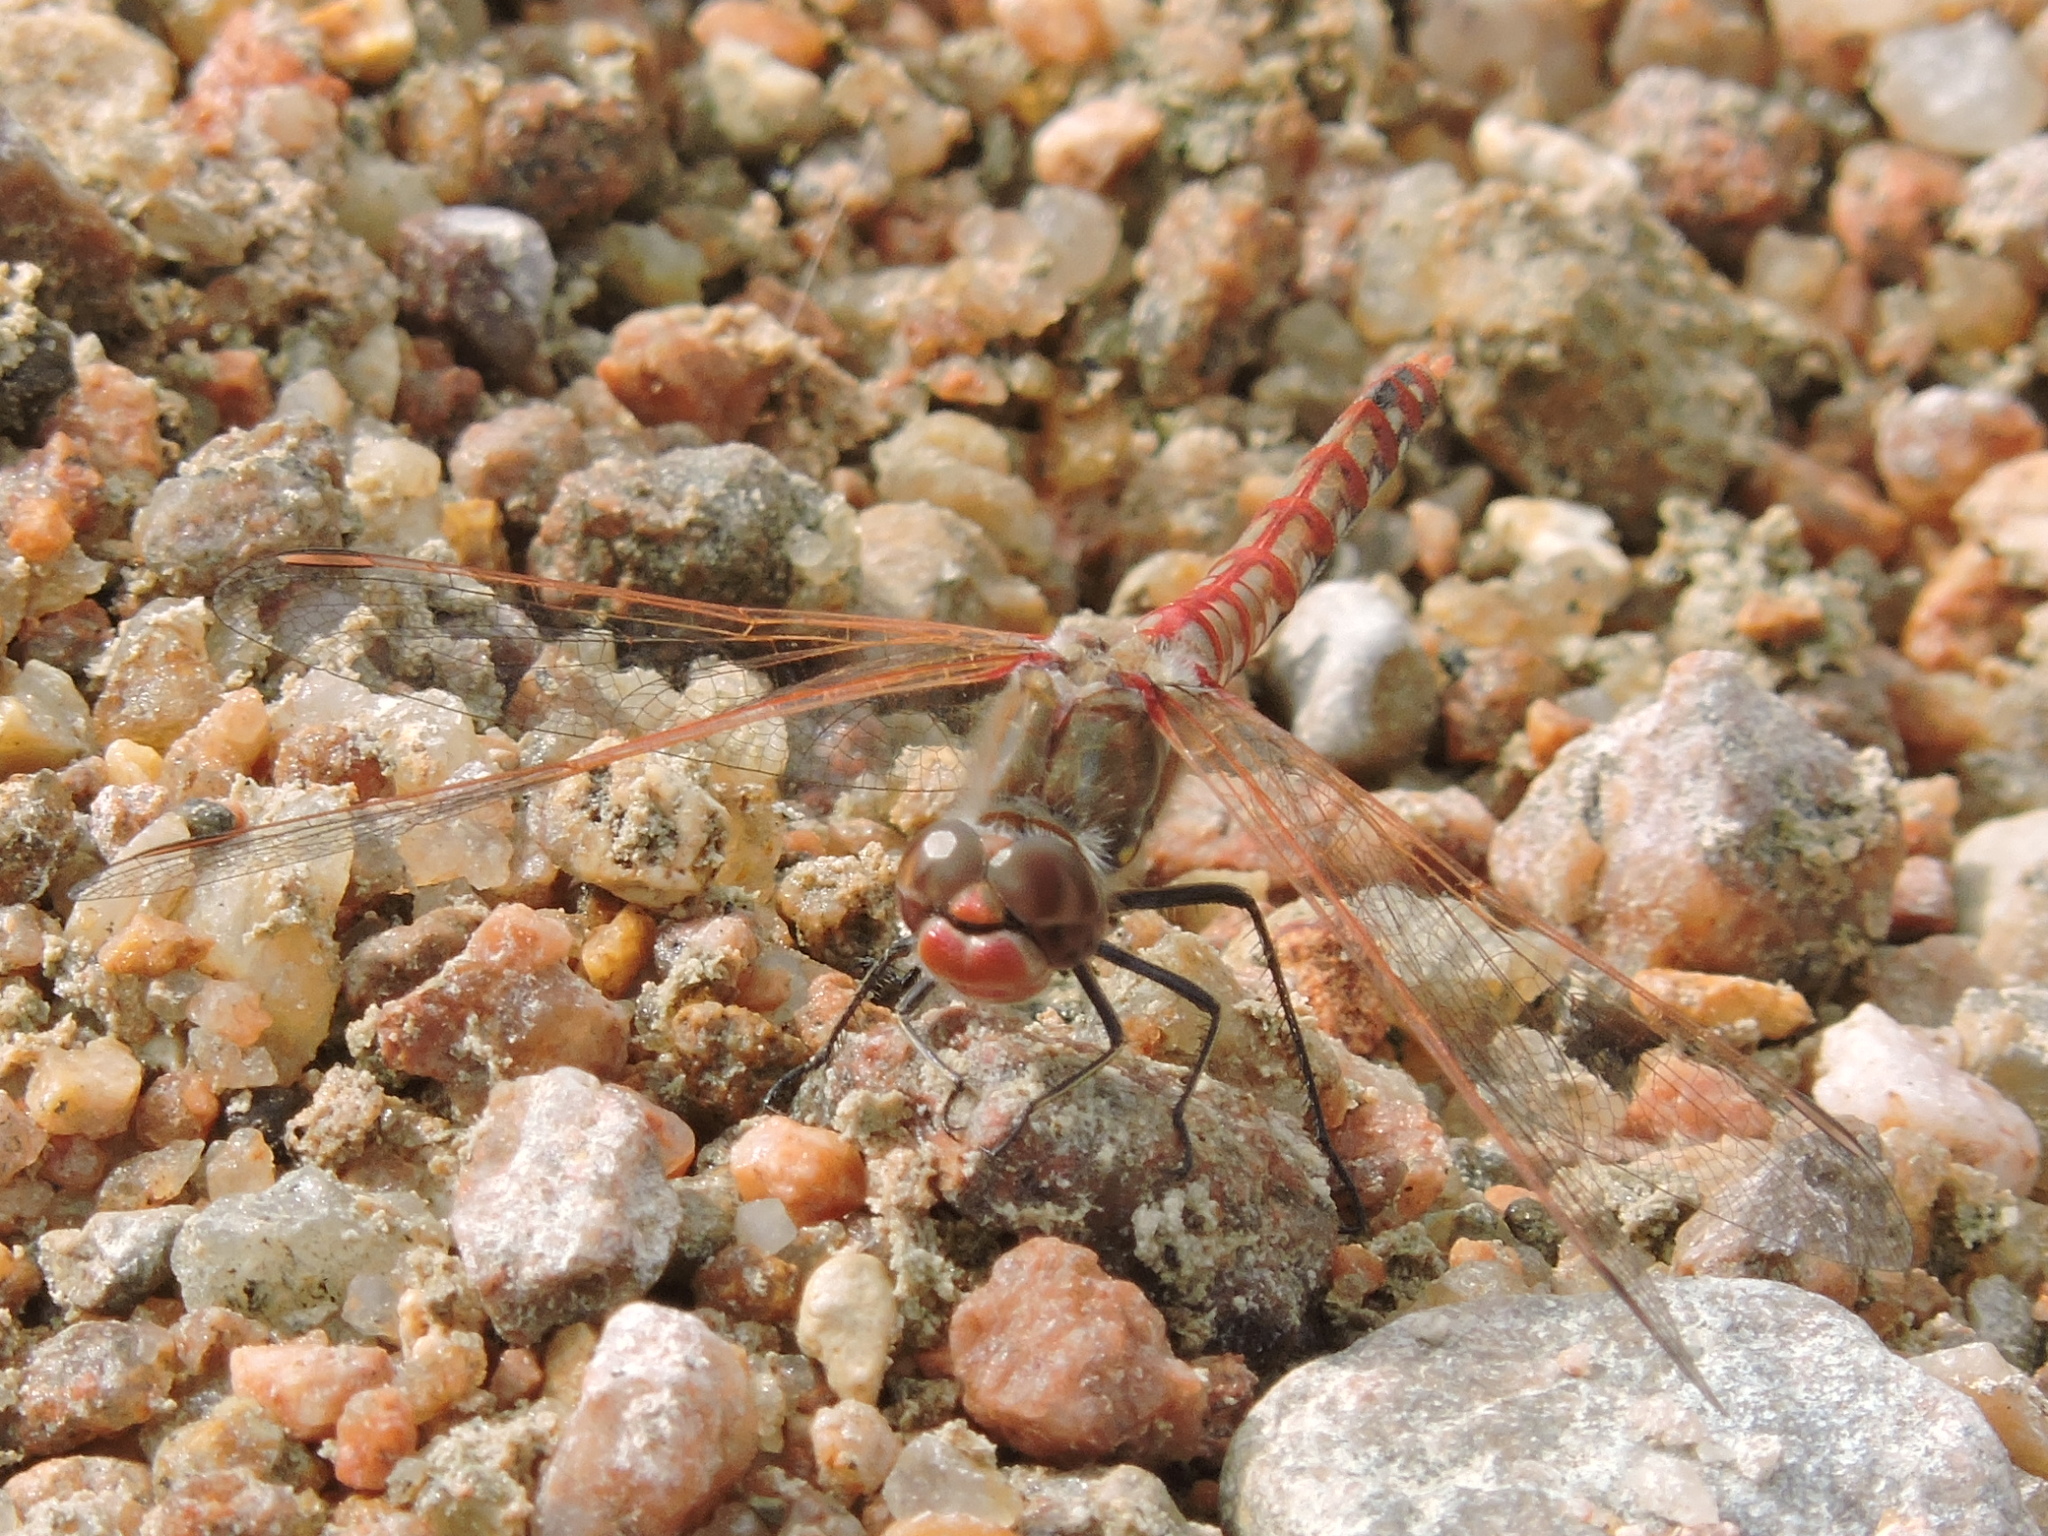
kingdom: Animalia
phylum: Arthropoda
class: Insecta
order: Odonata
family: Libellulidae
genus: Sympetrum
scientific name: Sympetrum corruptum
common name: Variegated meadowhawk
